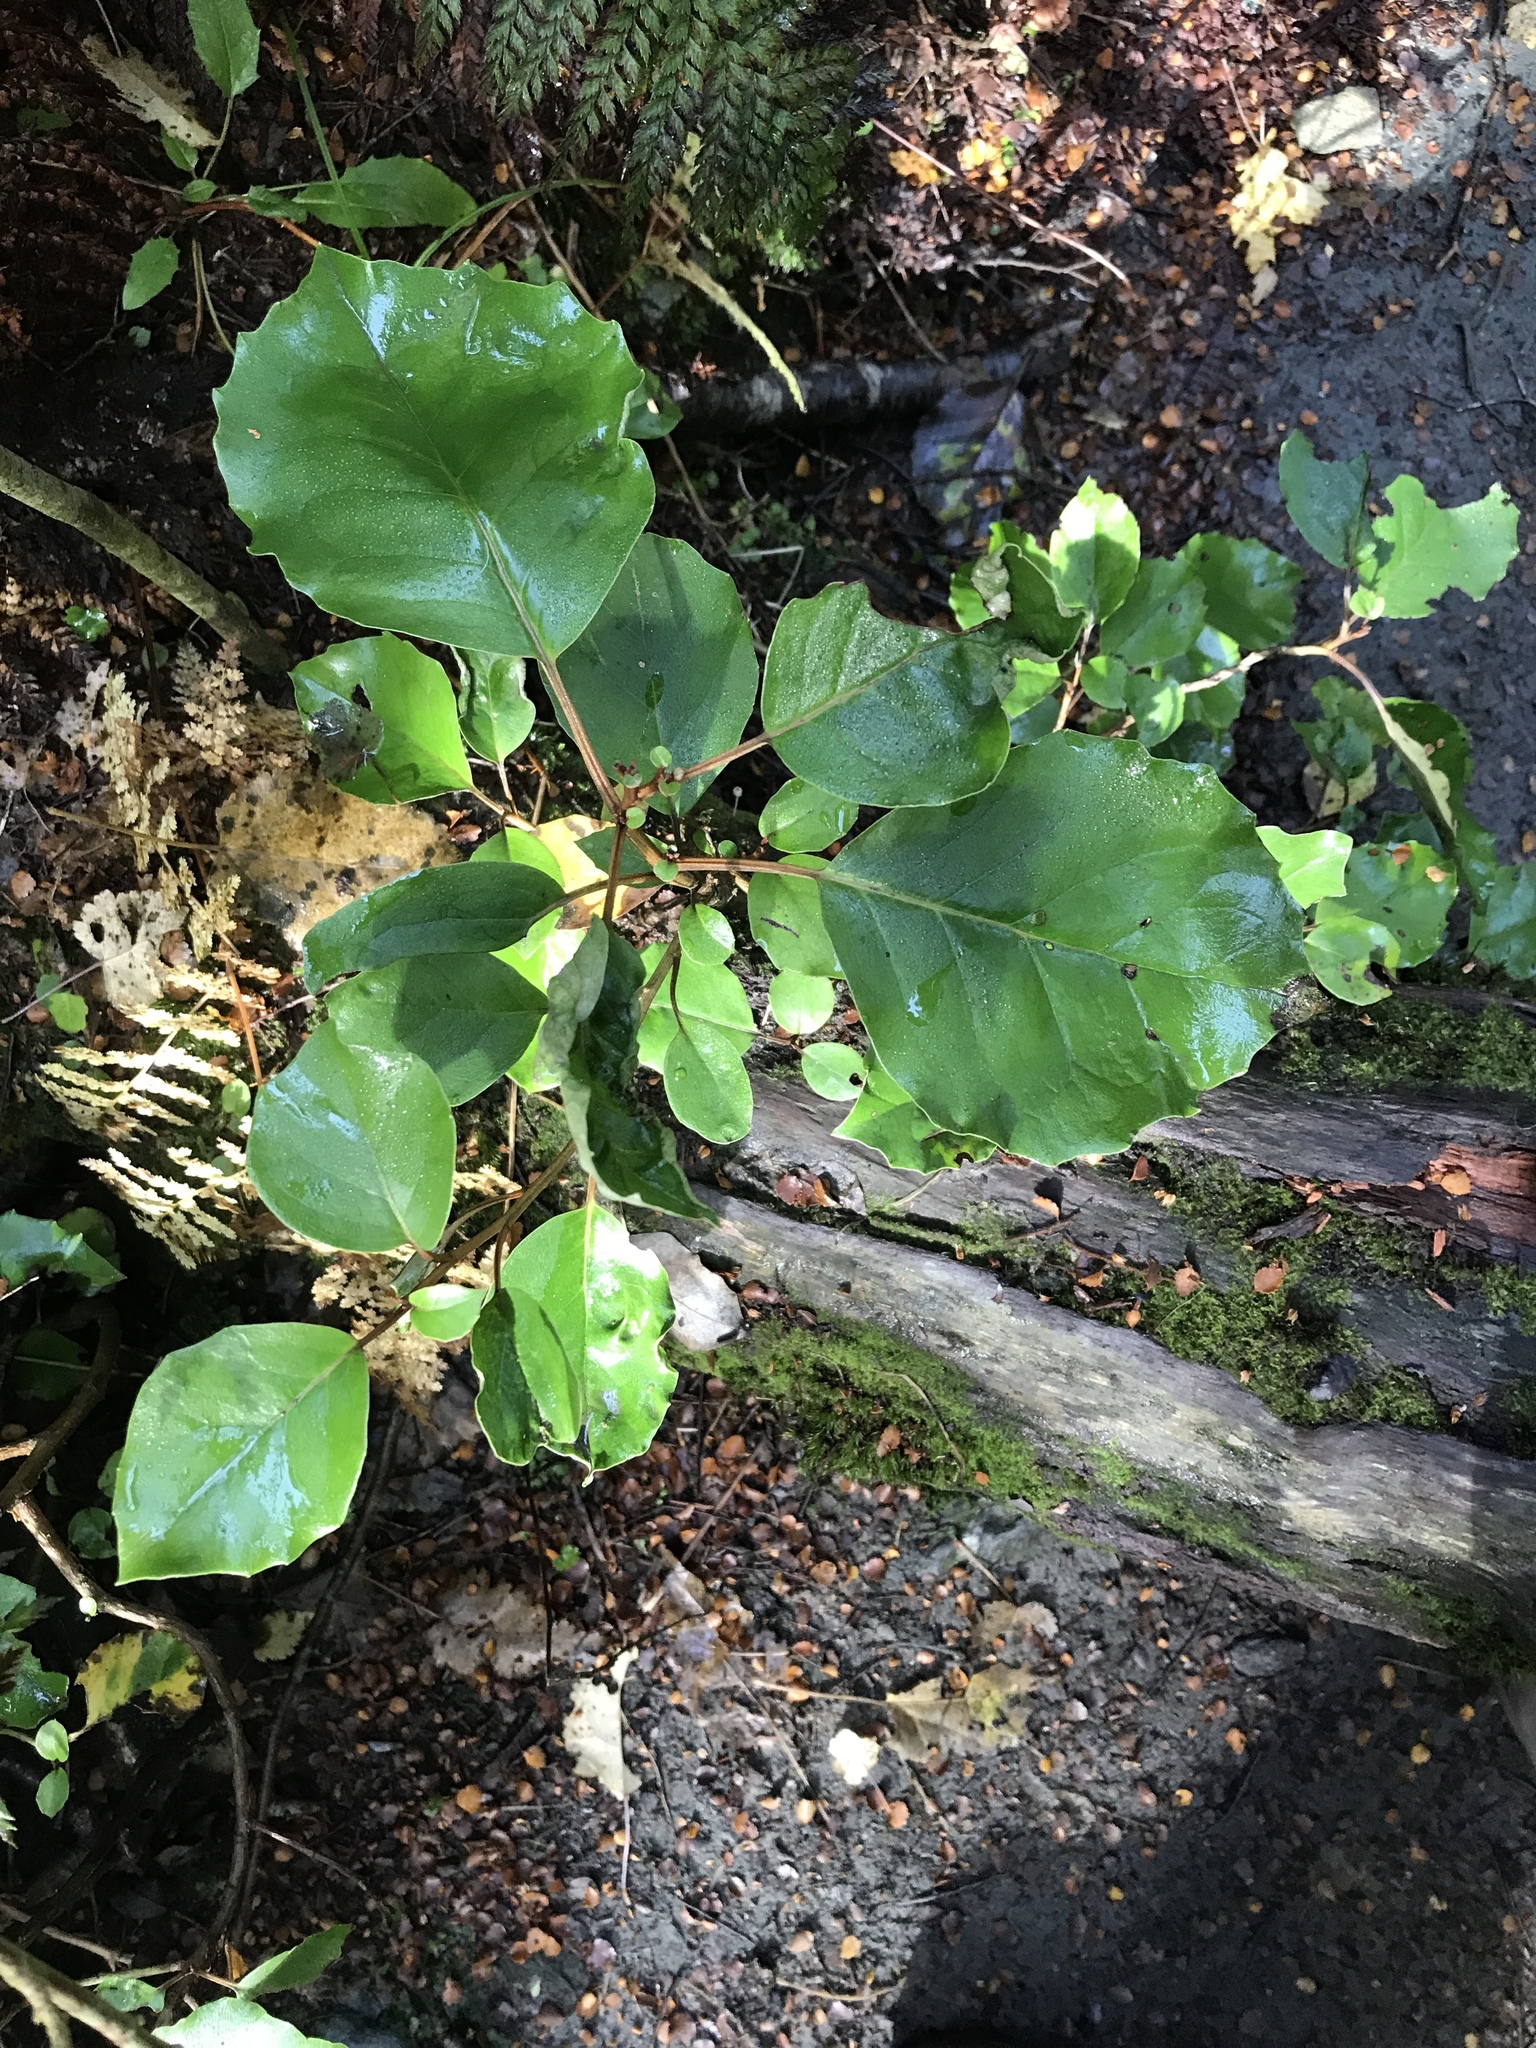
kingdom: Plantae
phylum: Tracheophyta
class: Magnoliopsida
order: Asterales
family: Asteraceae
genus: Olearia
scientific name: Olearia arborescens
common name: Glossy tree daisy
